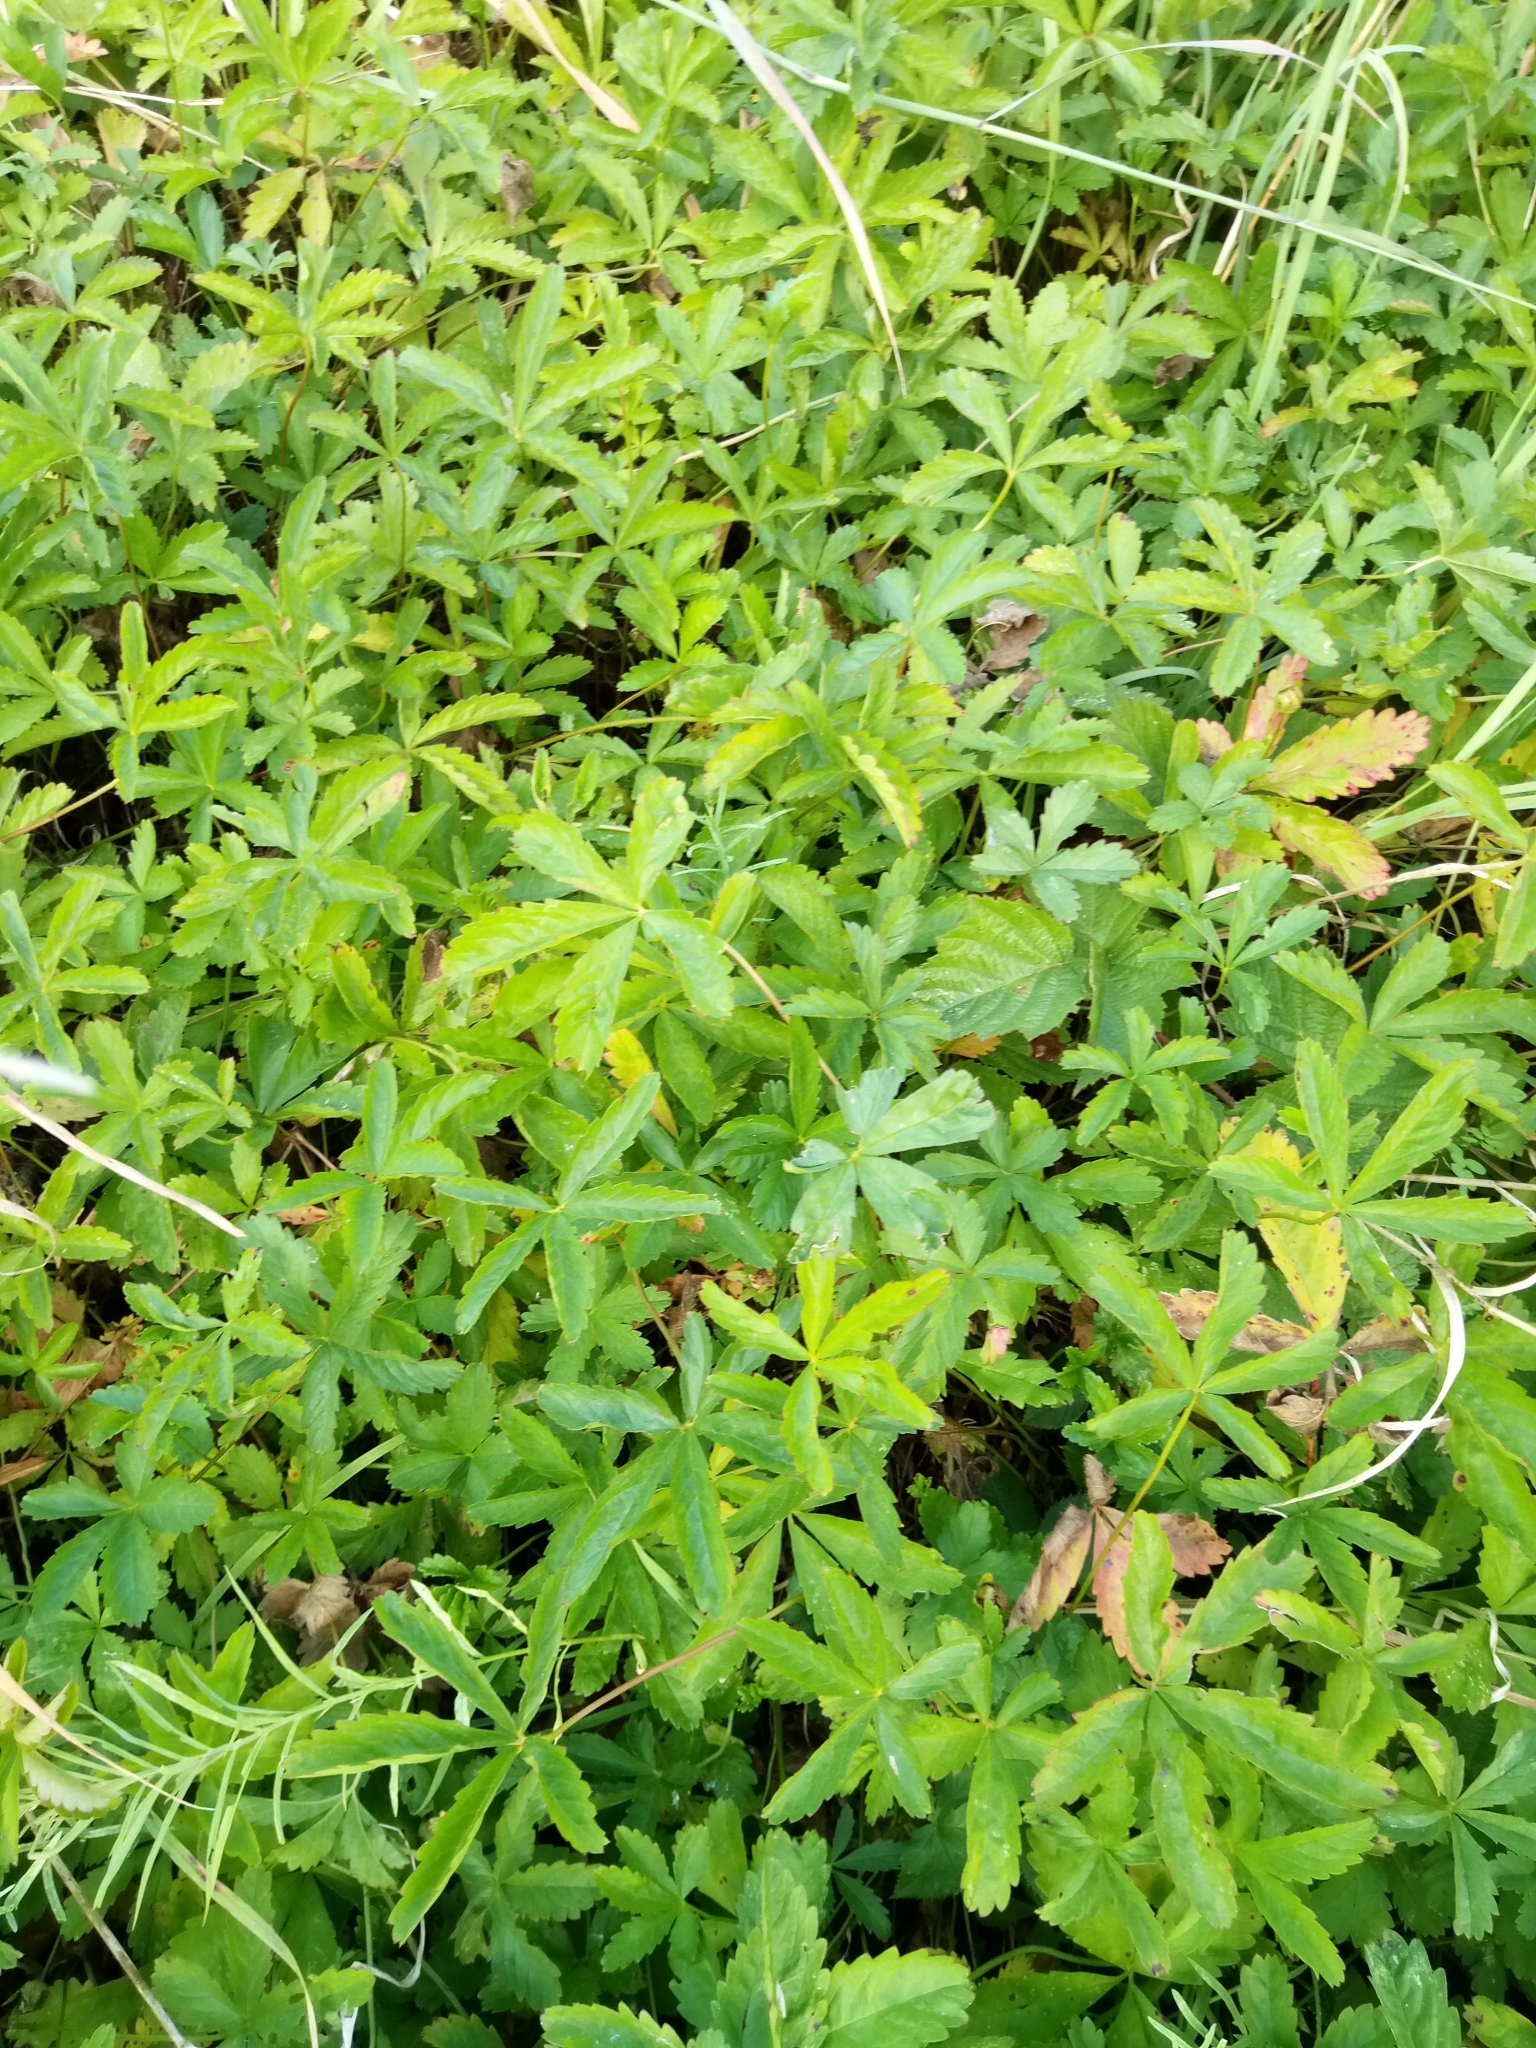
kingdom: Plantae
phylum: Tracheophyta
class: Magnoliopsida
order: Rosales
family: Rosaceae
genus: Potentilla
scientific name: Potentilla reptans
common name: Creeping cinquefoil
